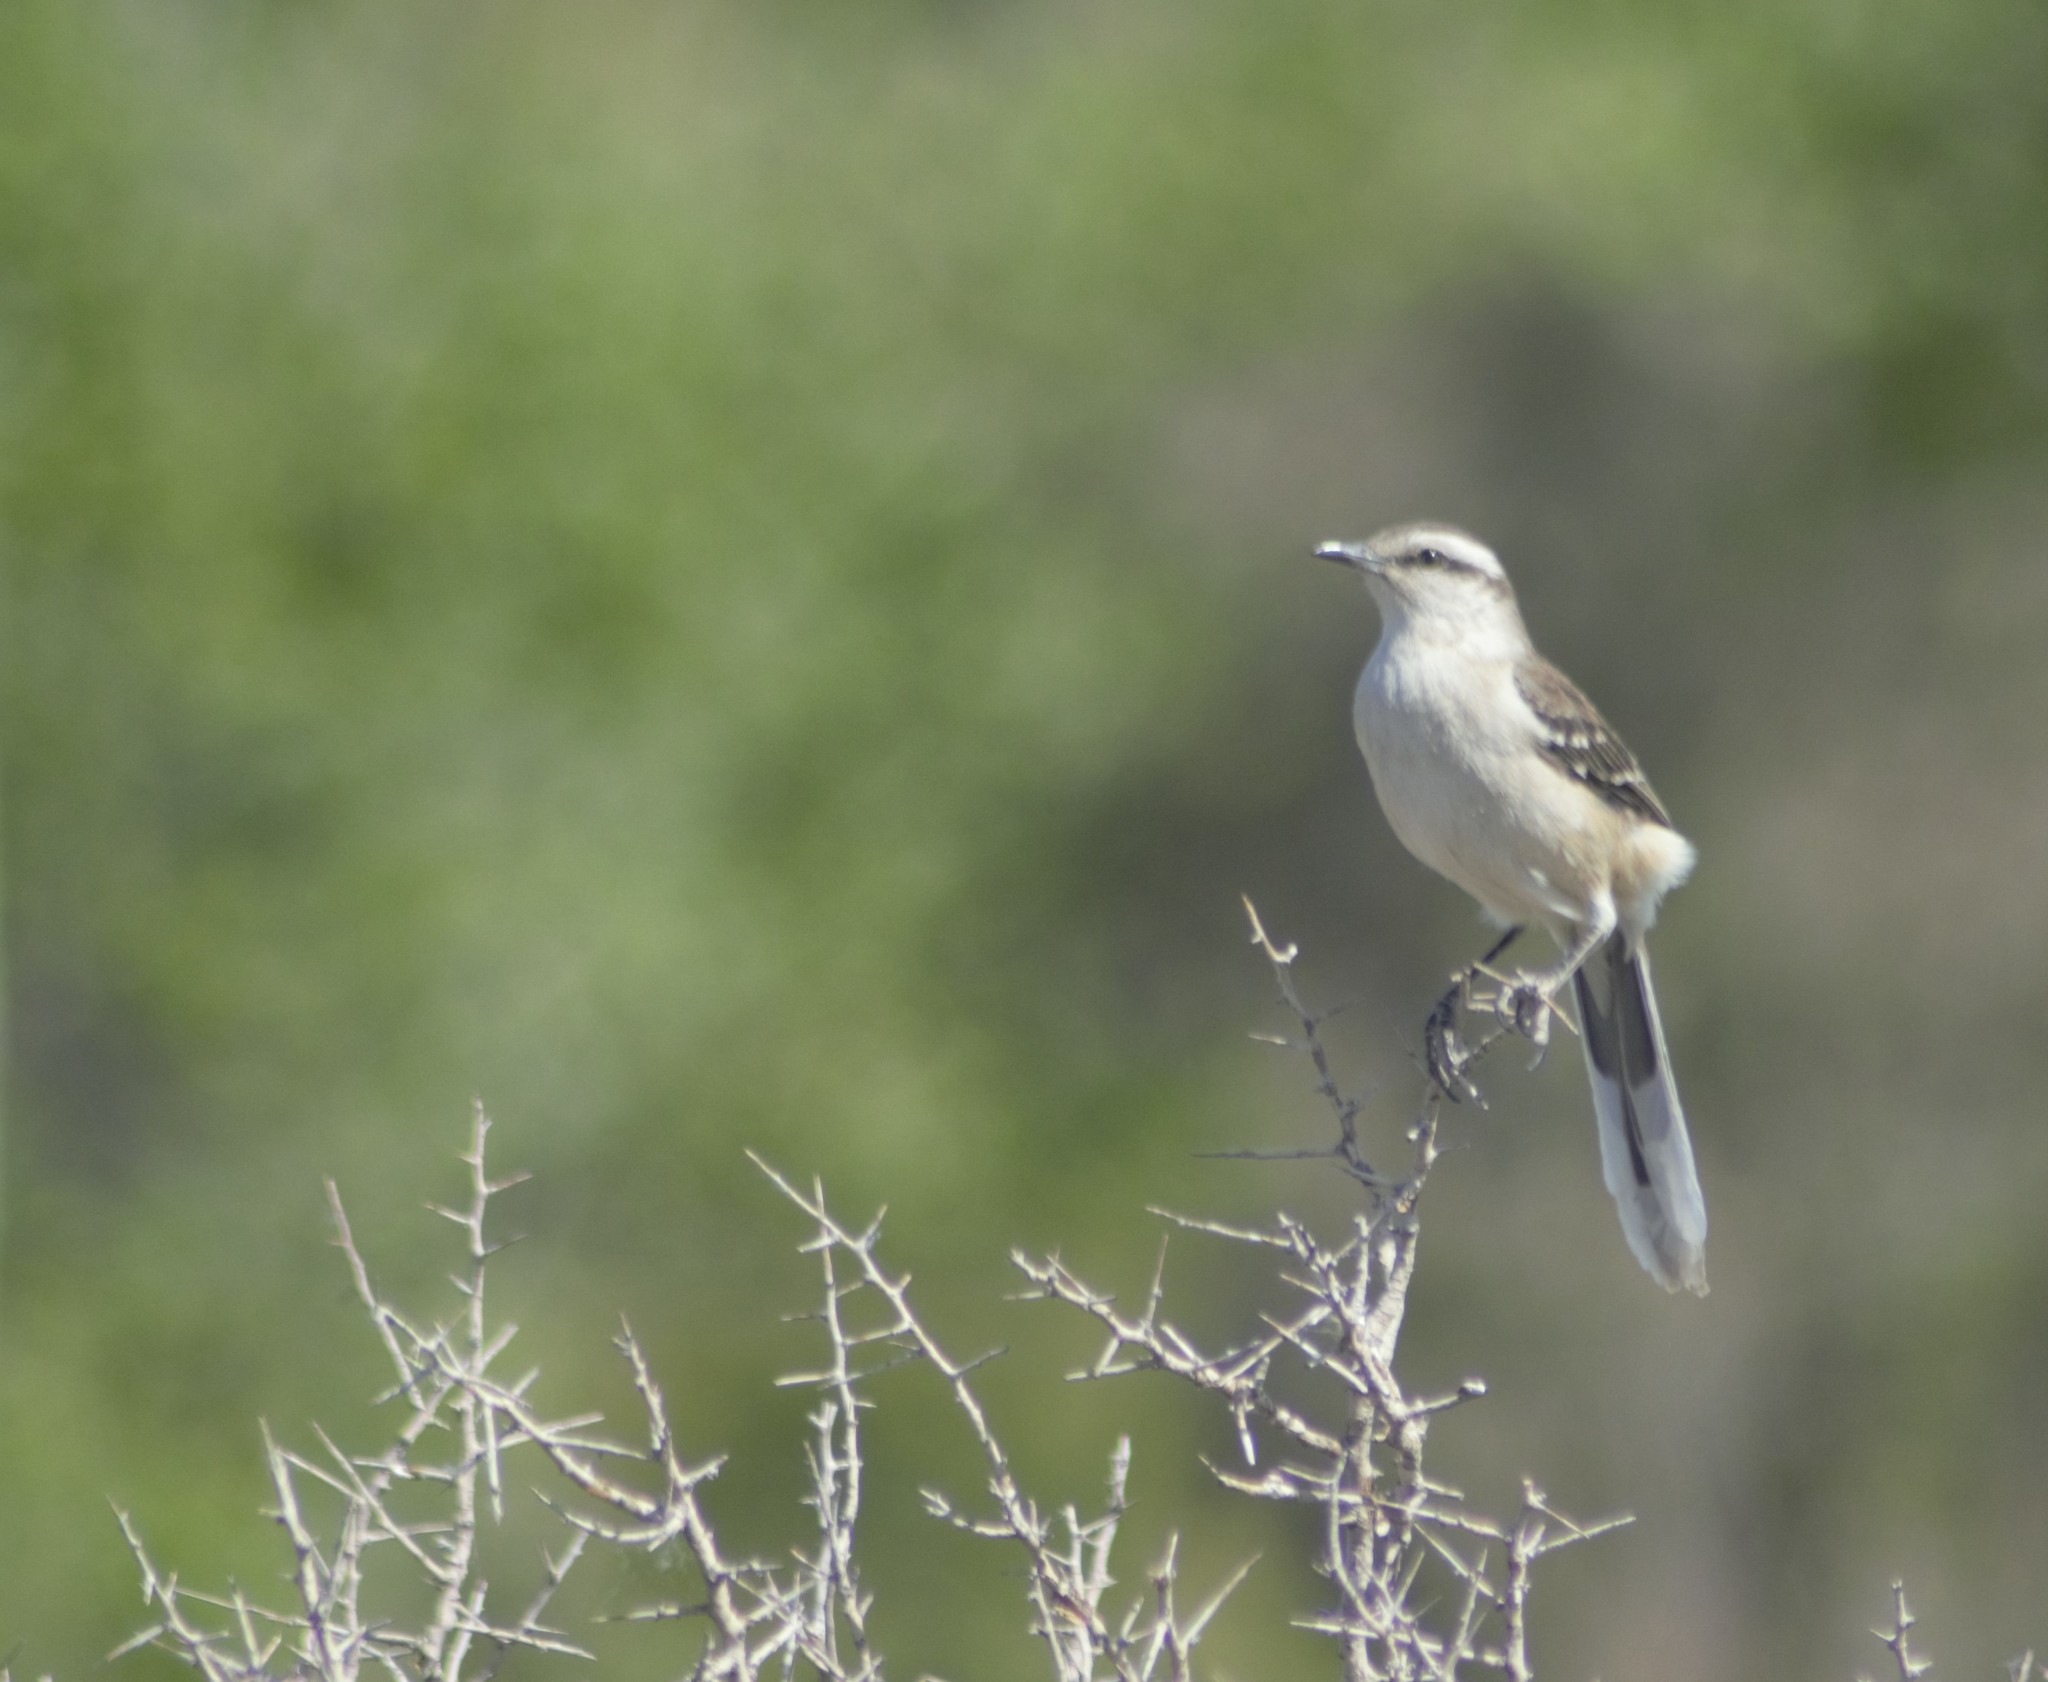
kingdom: Animalia
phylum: Chordata
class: Aves
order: Passeriformes
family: Mimidae
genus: Mimus
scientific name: Mimus saturninus
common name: Chalk-browed mockingbird
